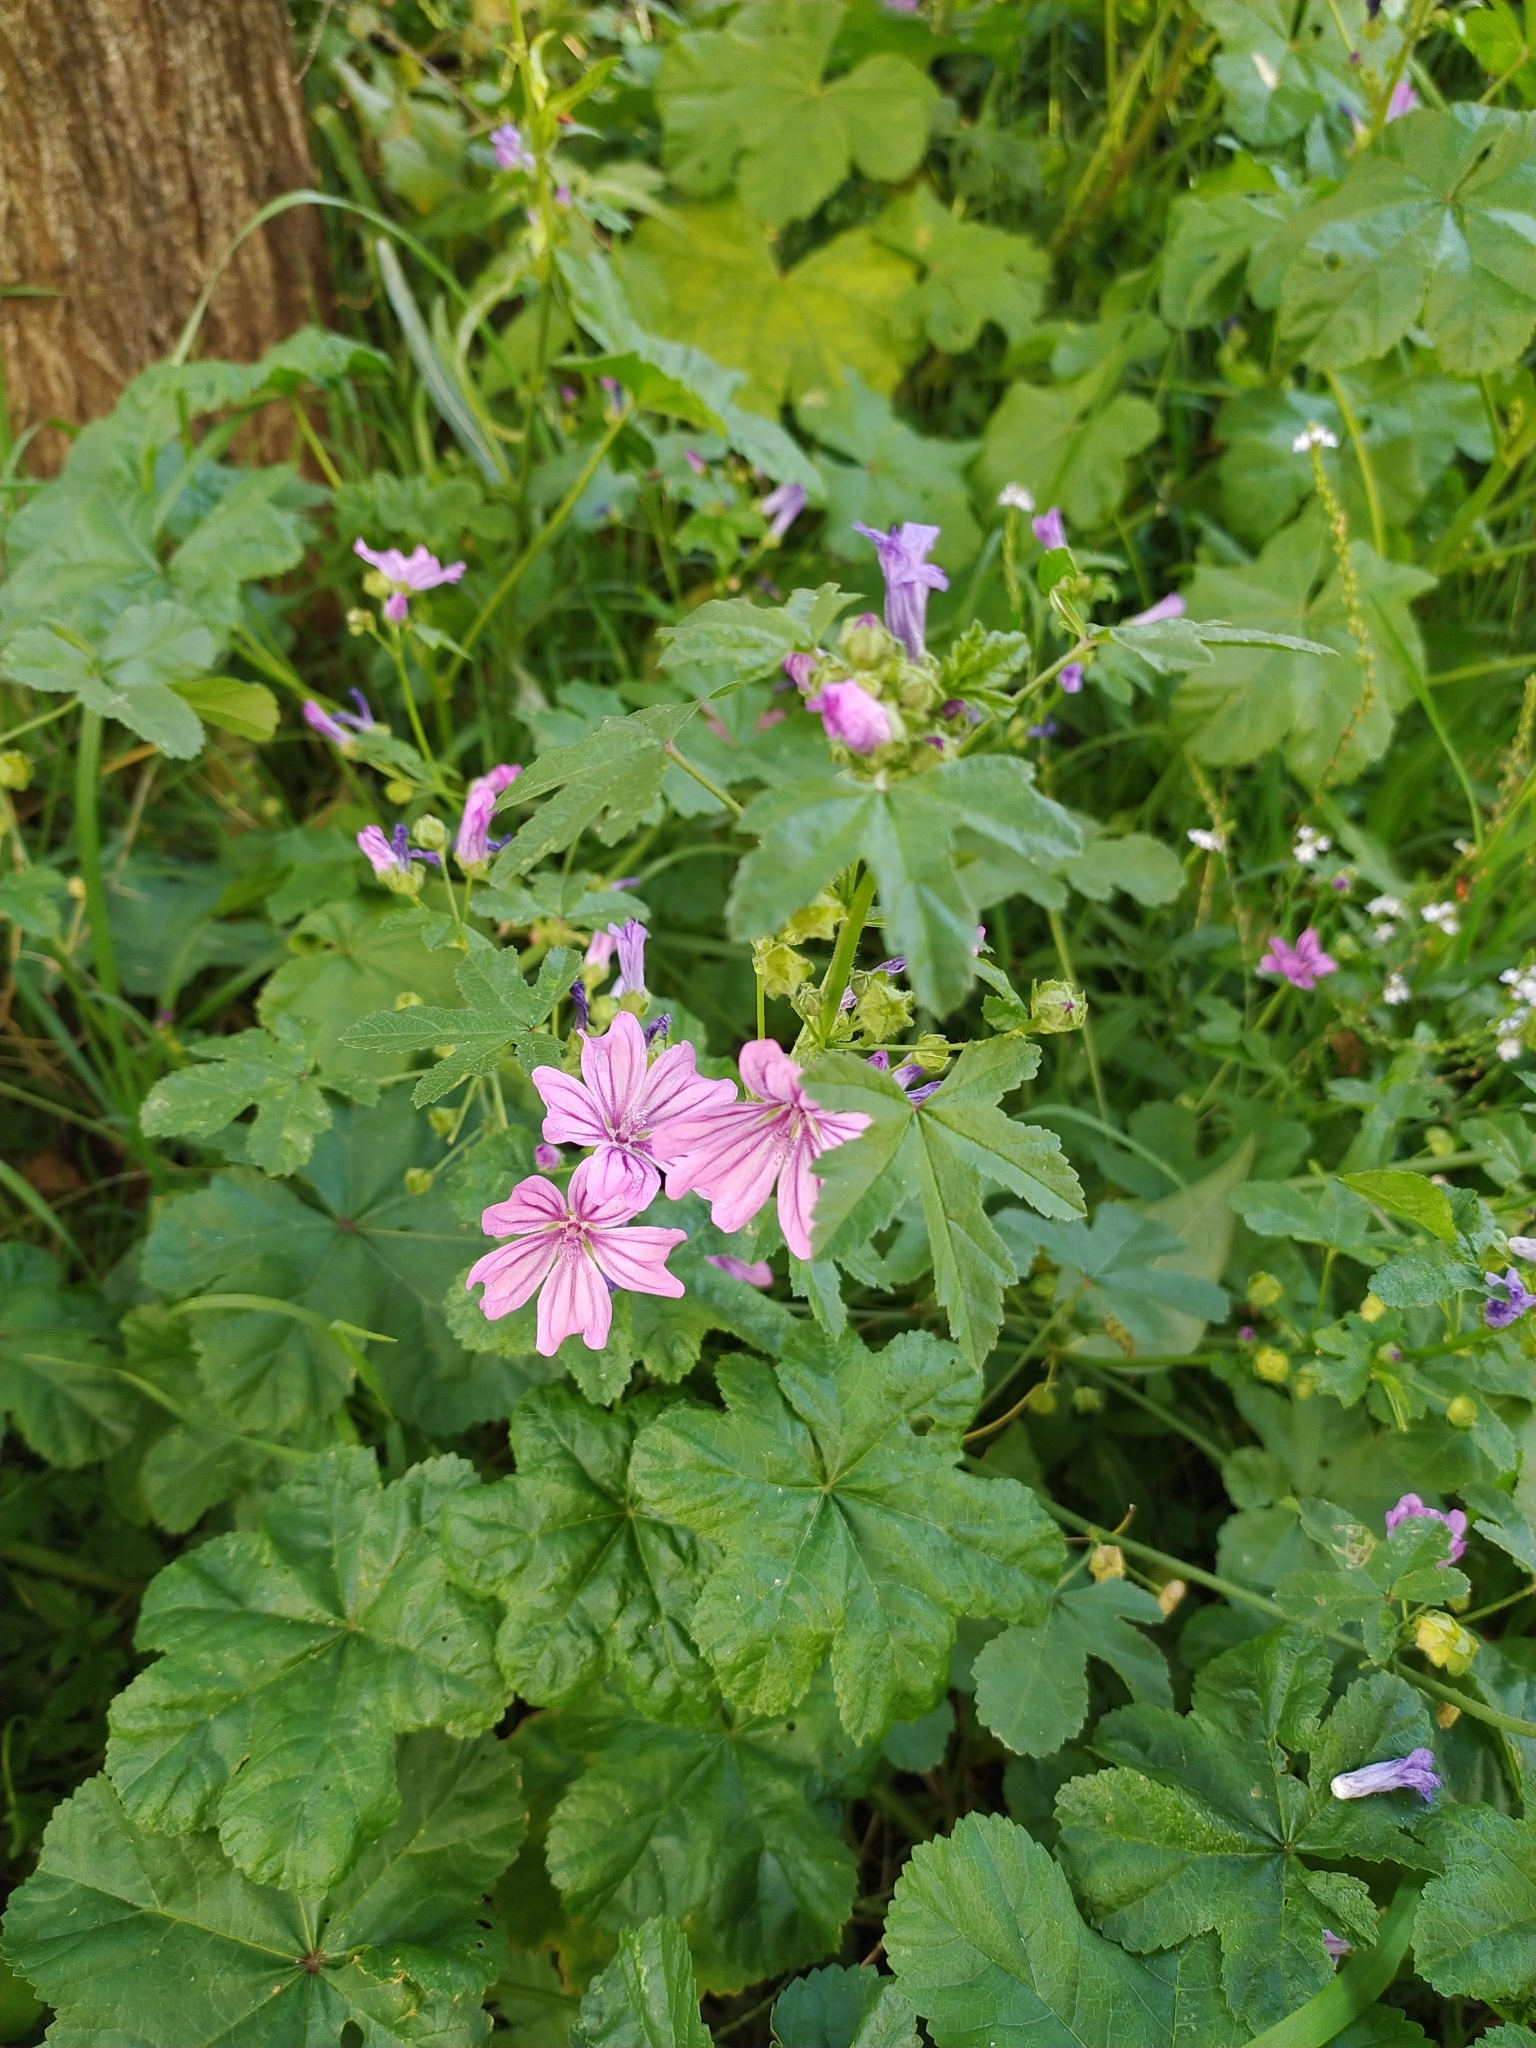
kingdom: Plantae
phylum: Tracheophyta
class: Magnoliopsida
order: Malvales
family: Malvaceae
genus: Malva
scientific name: Malva sylvestris
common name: Common mallow
